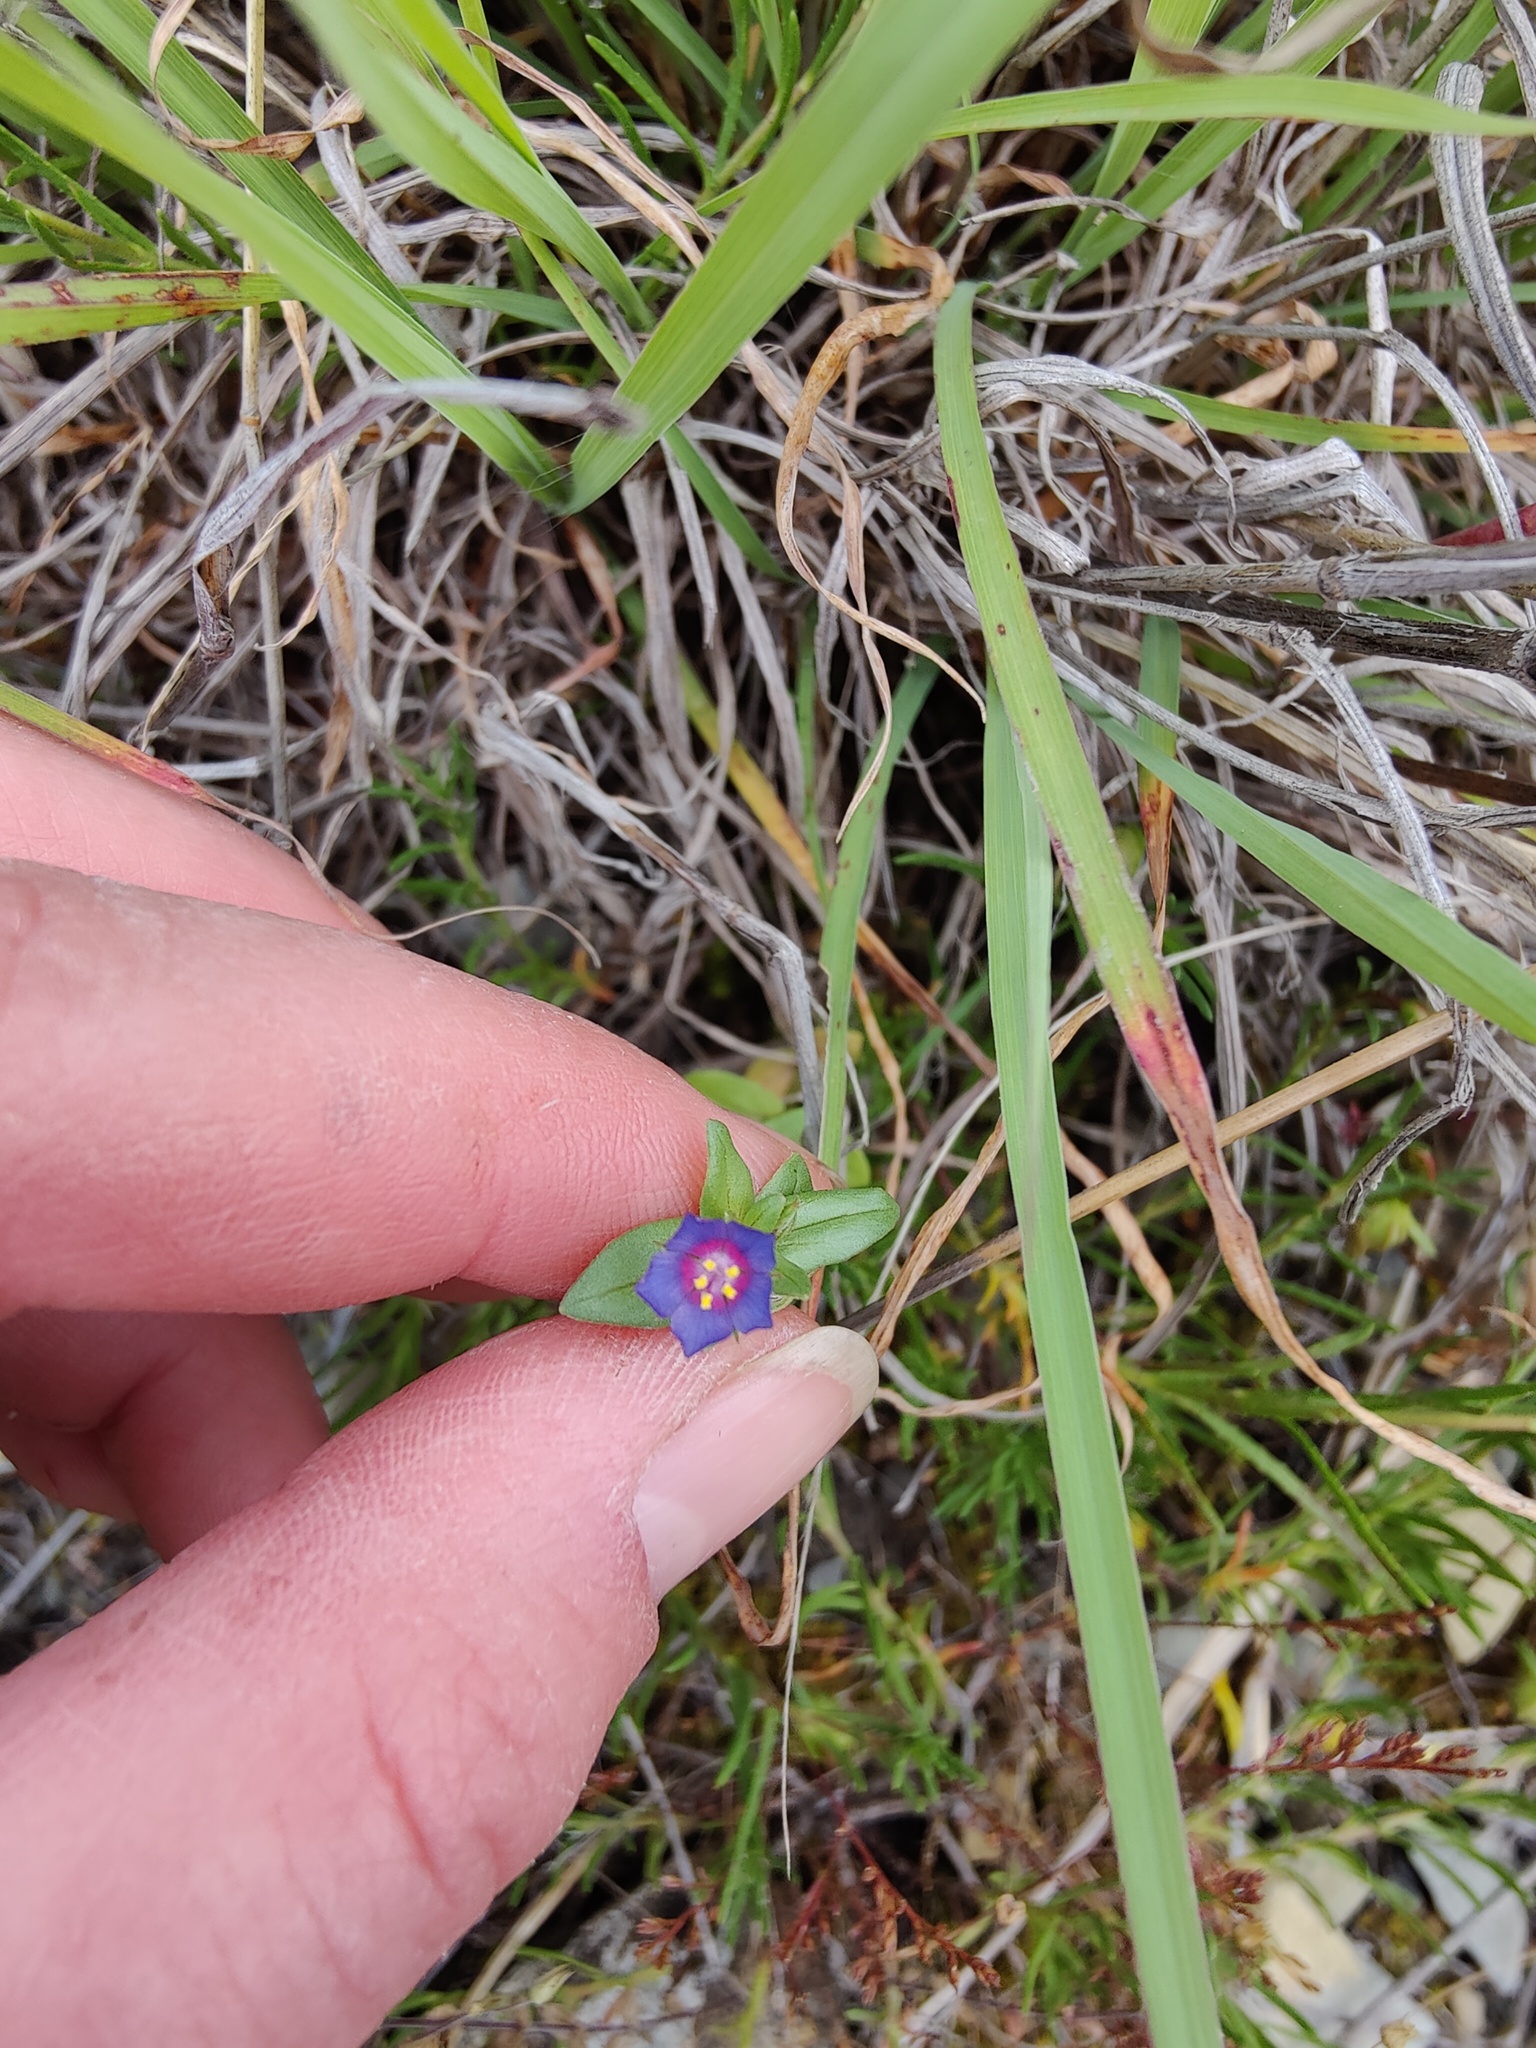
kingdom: Plantae
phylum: Tracheophyta
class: Magnoliopsida
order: Ericales
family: Primulaceae
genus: Lysimachia
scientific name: Lysimachia foemina
